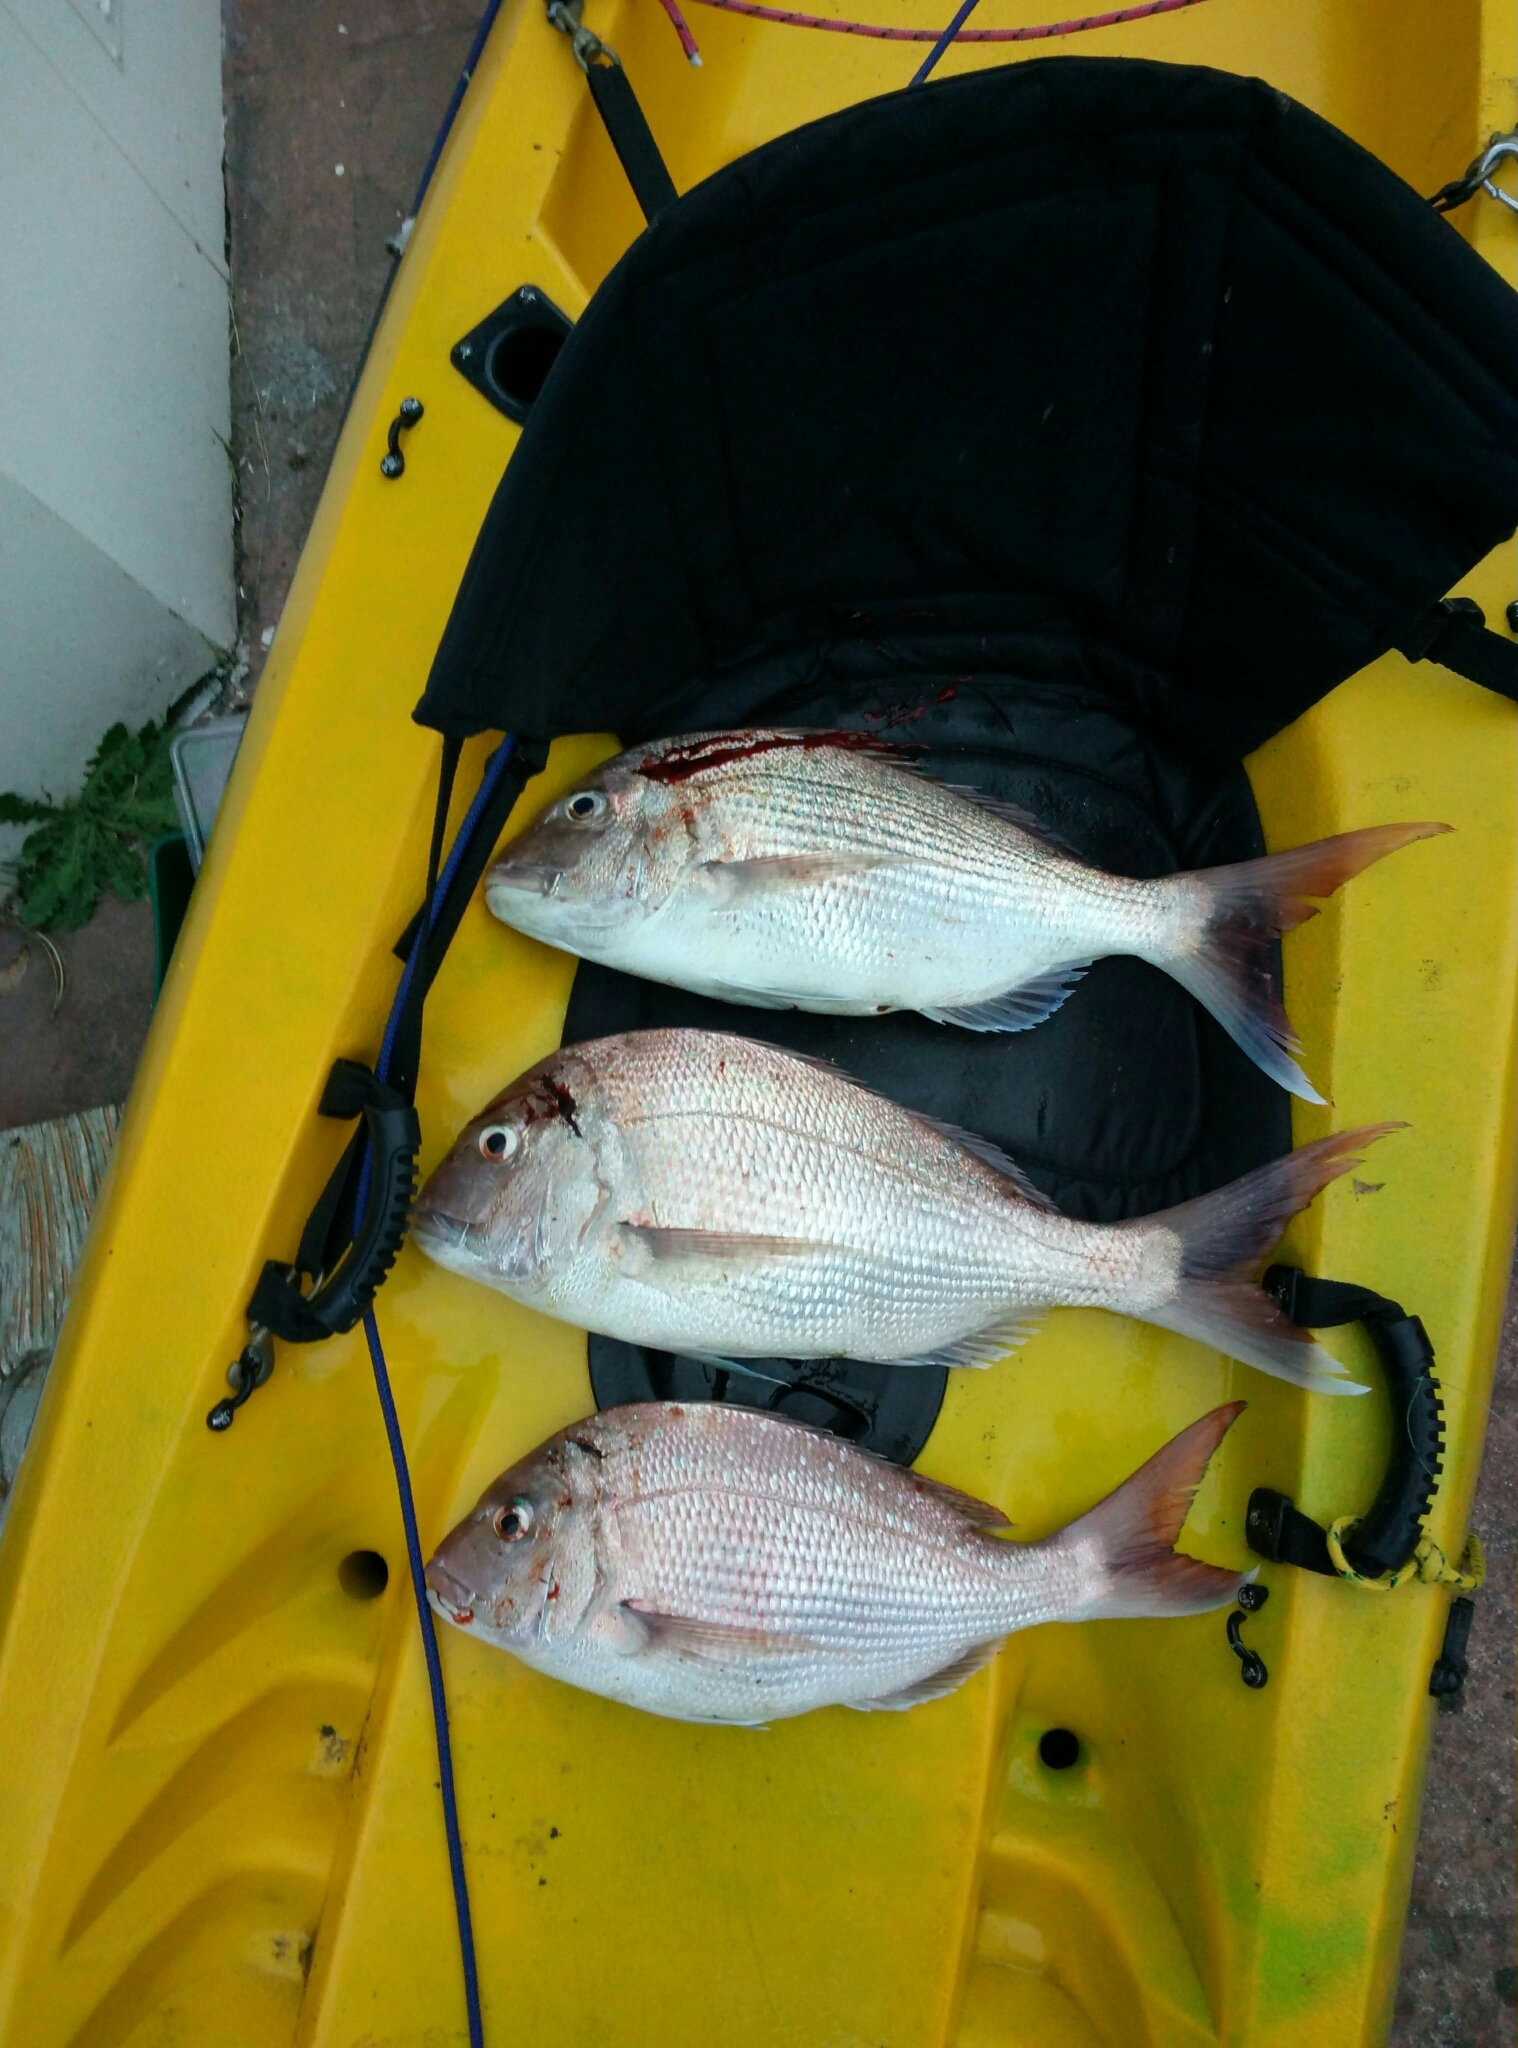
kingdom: Animalia
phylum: Chordata
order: Perciformes
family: Sparidae
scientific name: Sparidae
